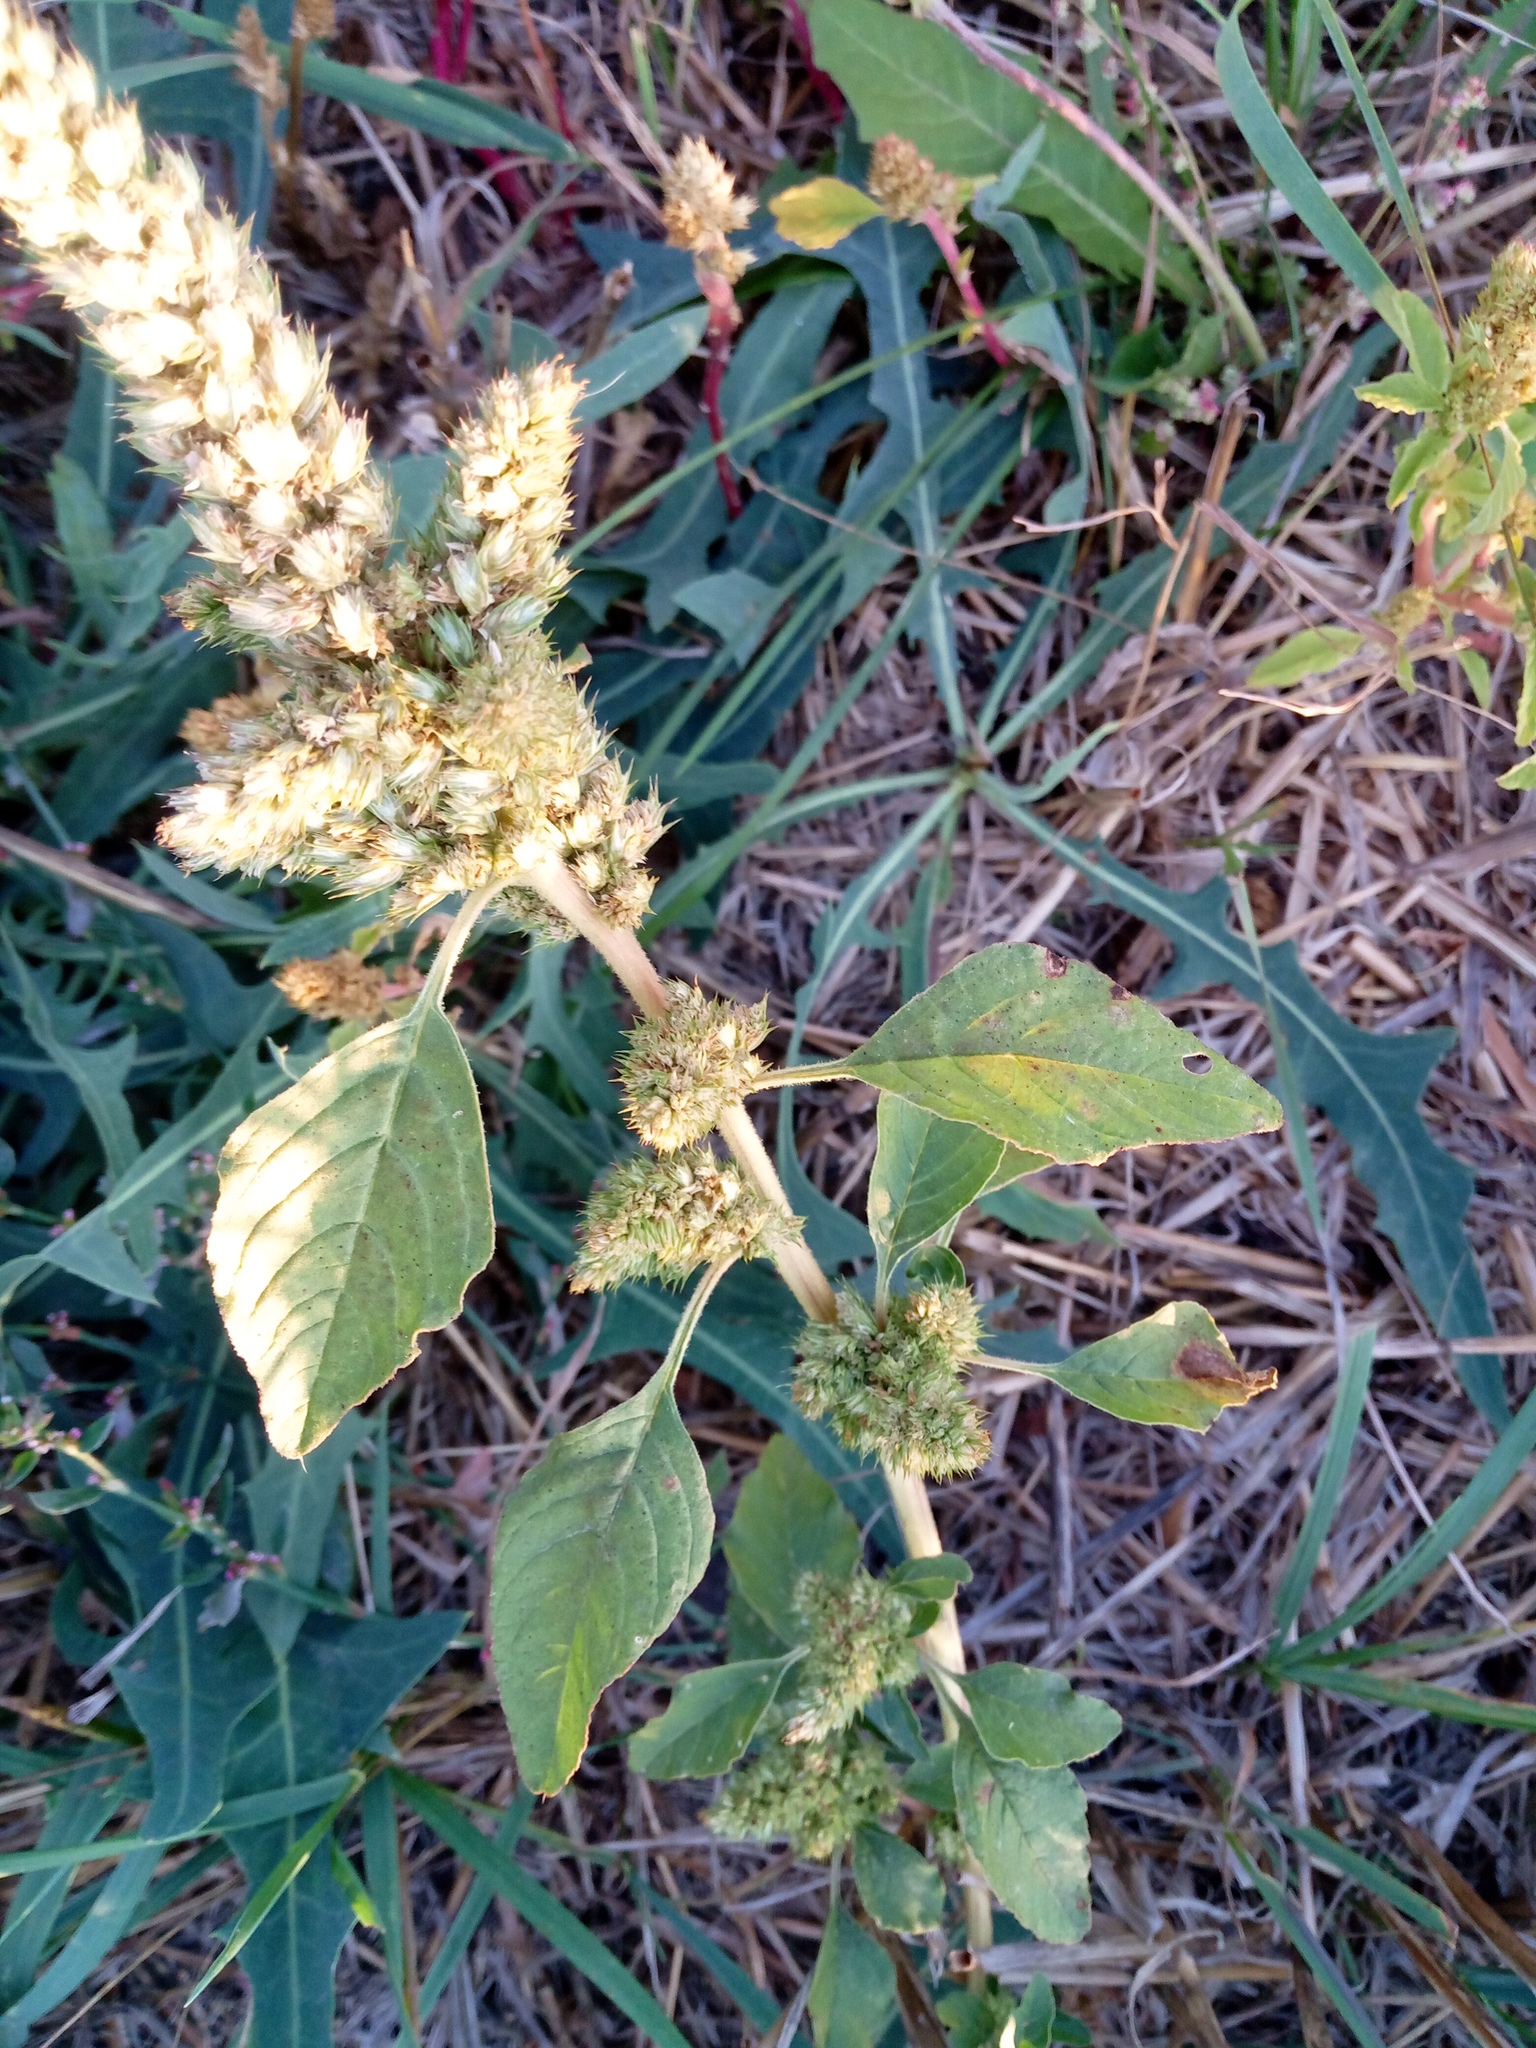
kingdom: Plantae
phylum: Tracheophyta
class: Magnoliopsida
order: Caryophyllales
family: Amaranthaceae
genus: Amaranthus
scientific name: Amaranthus retroflexus
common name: Redroot amaranth
